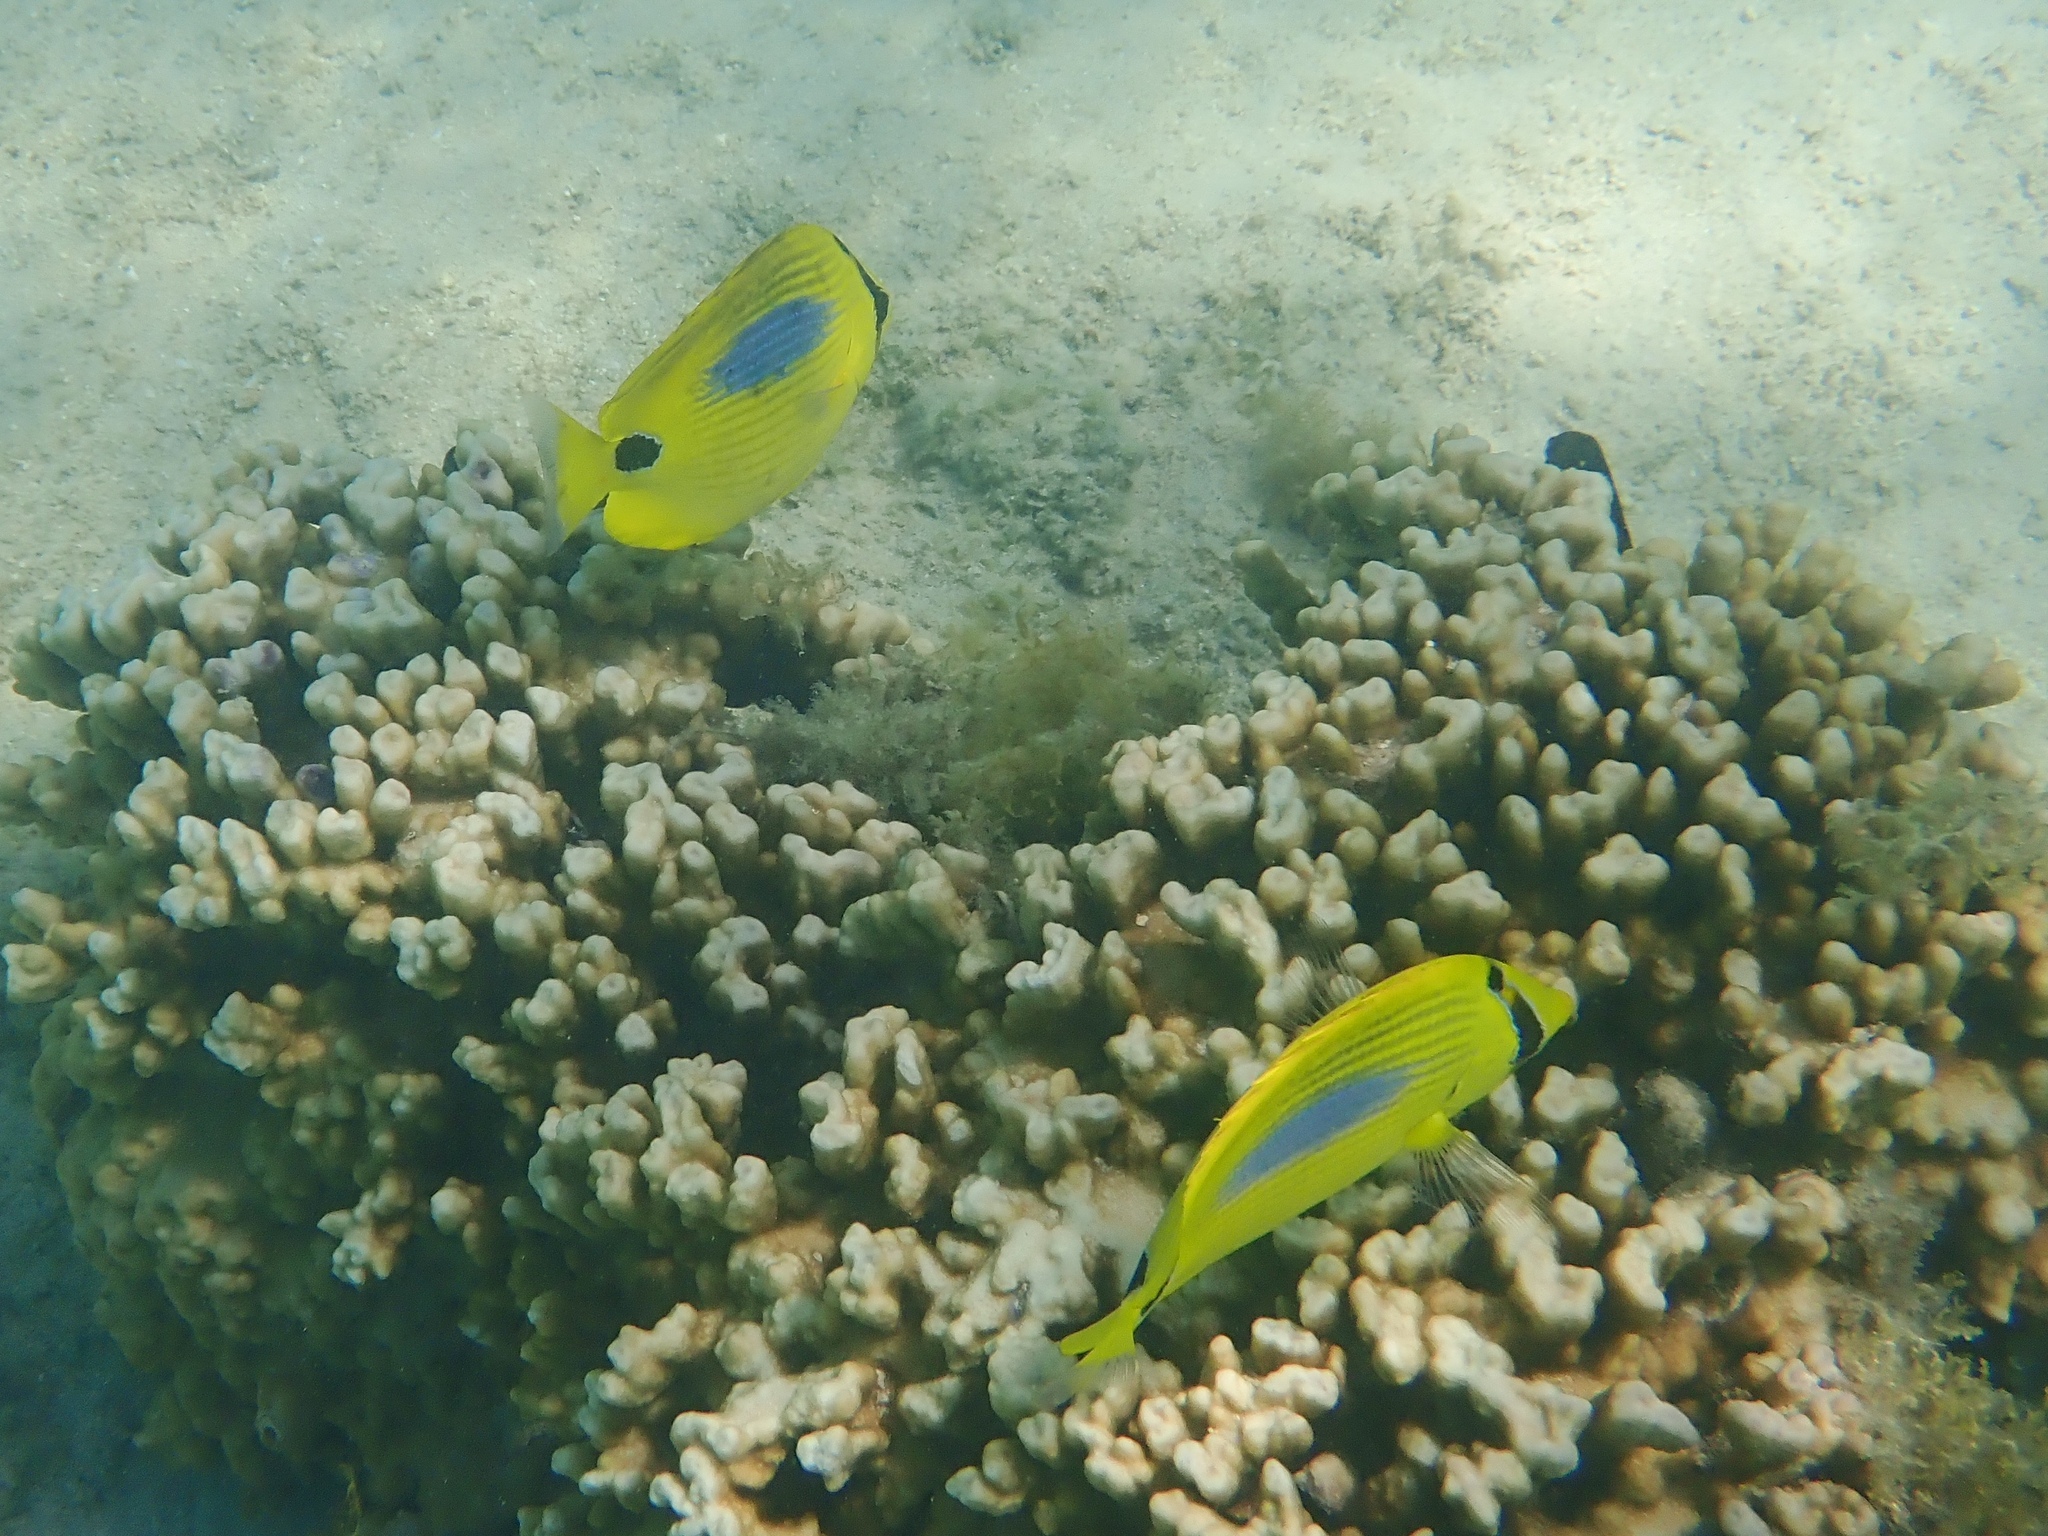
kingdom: Animalia
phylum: Chordata
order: Perciformes
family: Chaetodontidae
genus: Chaetodon
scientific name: Chaetodon plebeius
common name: Bluespot butterflyfish
